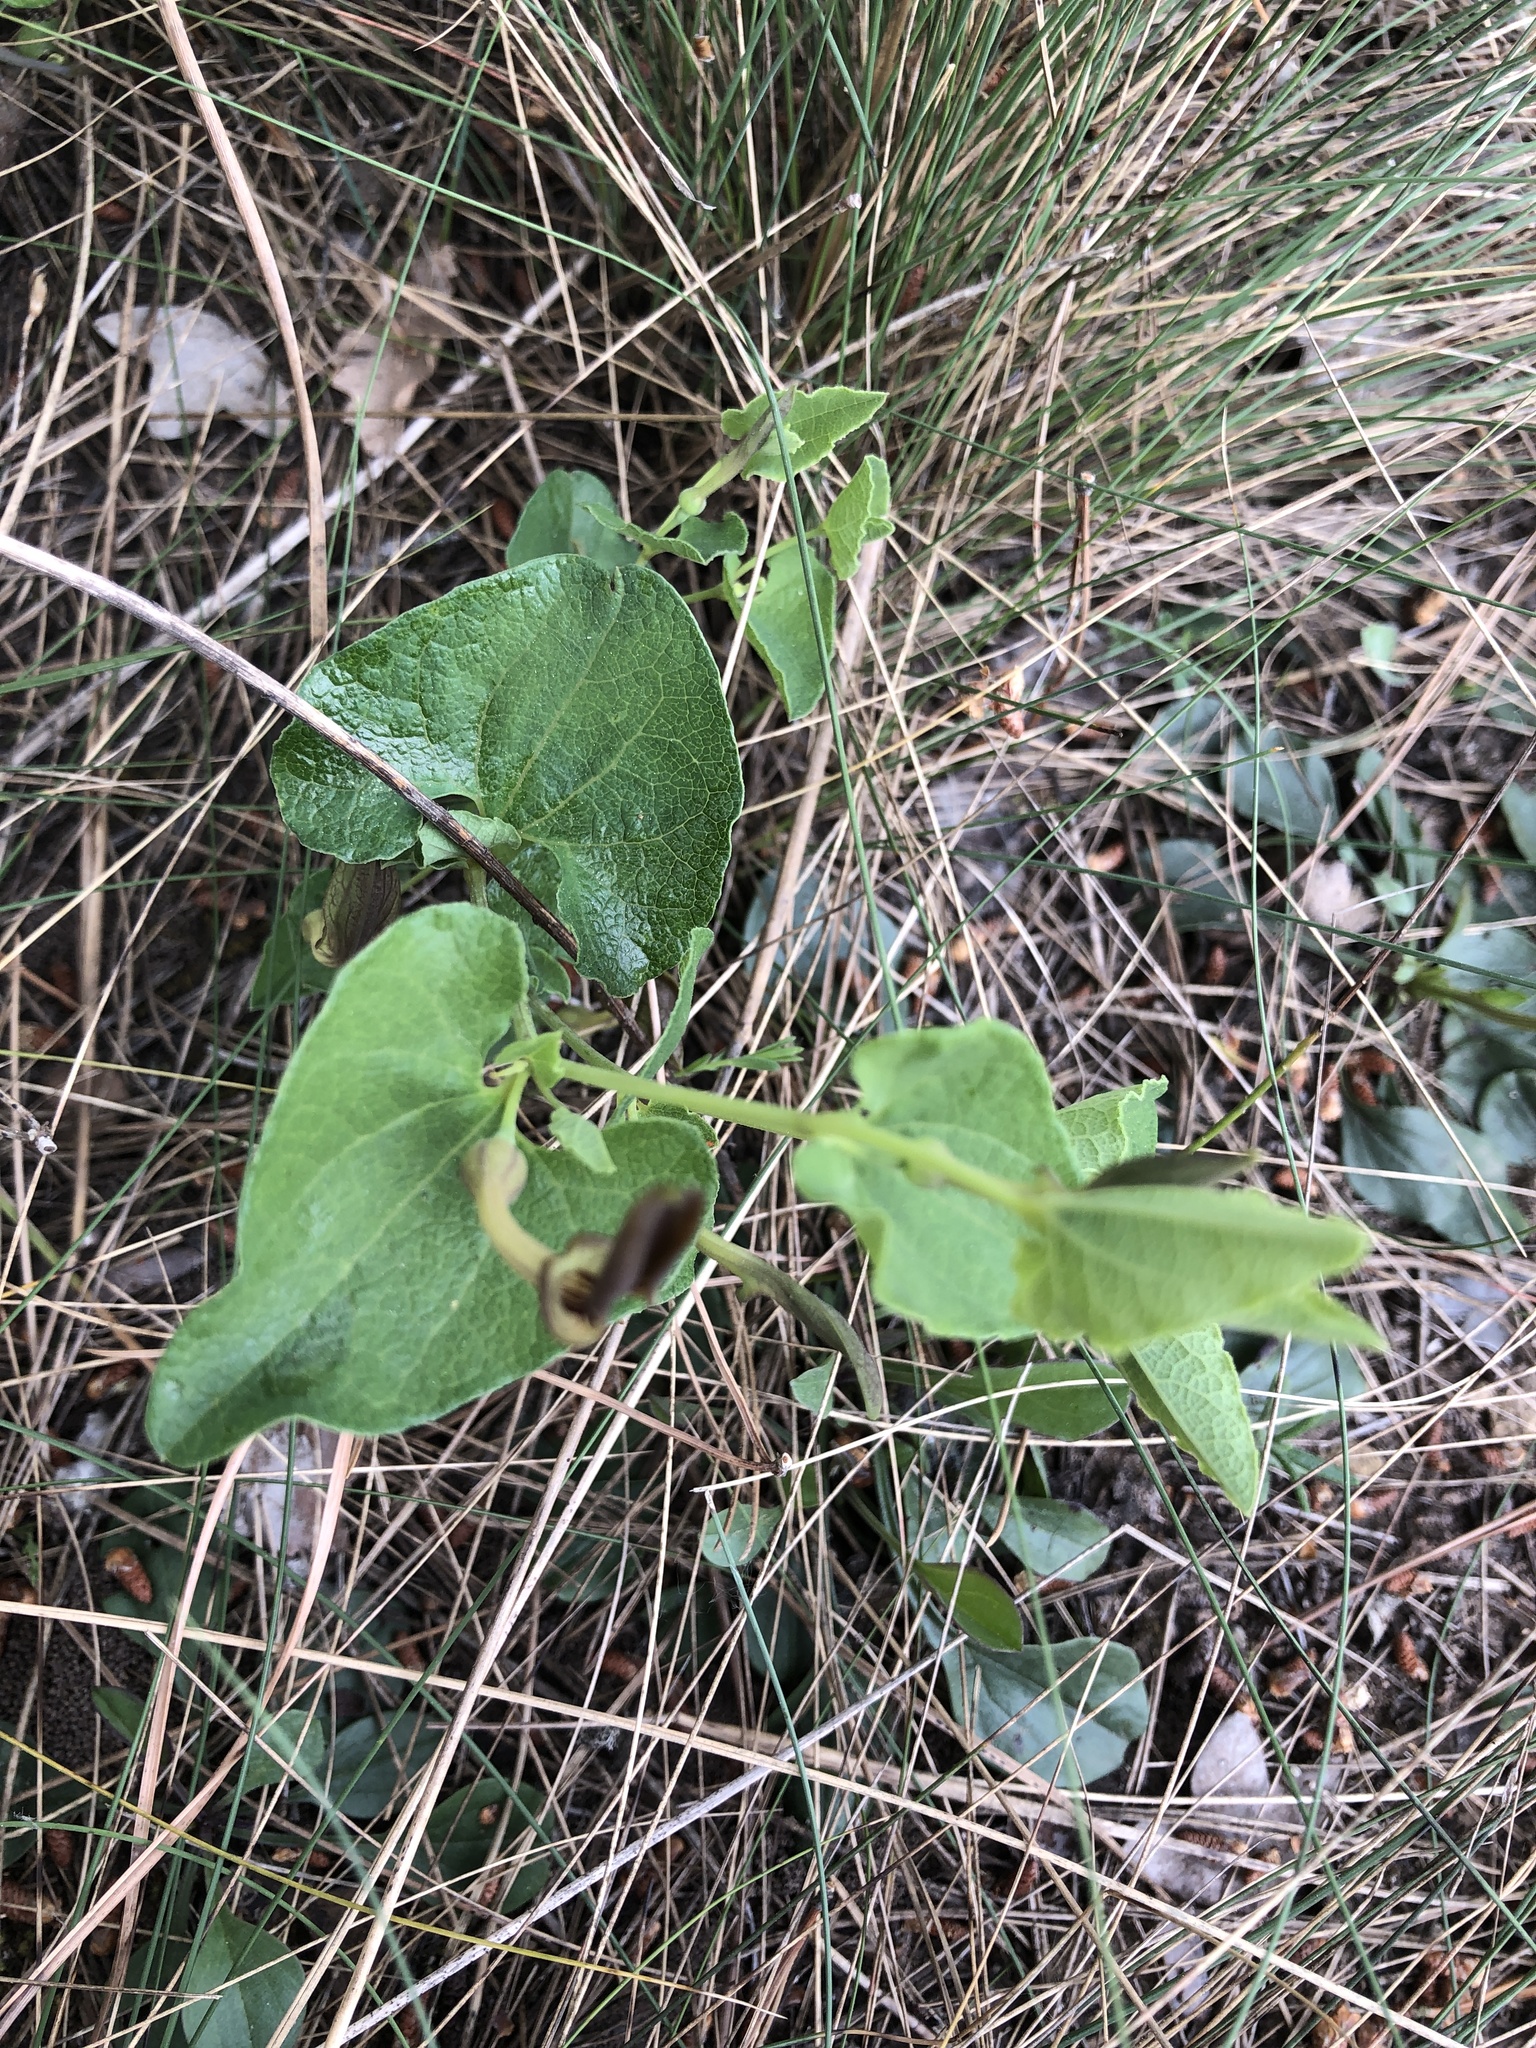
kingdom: Plantae
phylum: Tracheophyta
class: Magnoliopsida
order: Piperales
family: Aristolochiaceae
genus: Aristolochia
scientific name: Aristolochia pistolochia
